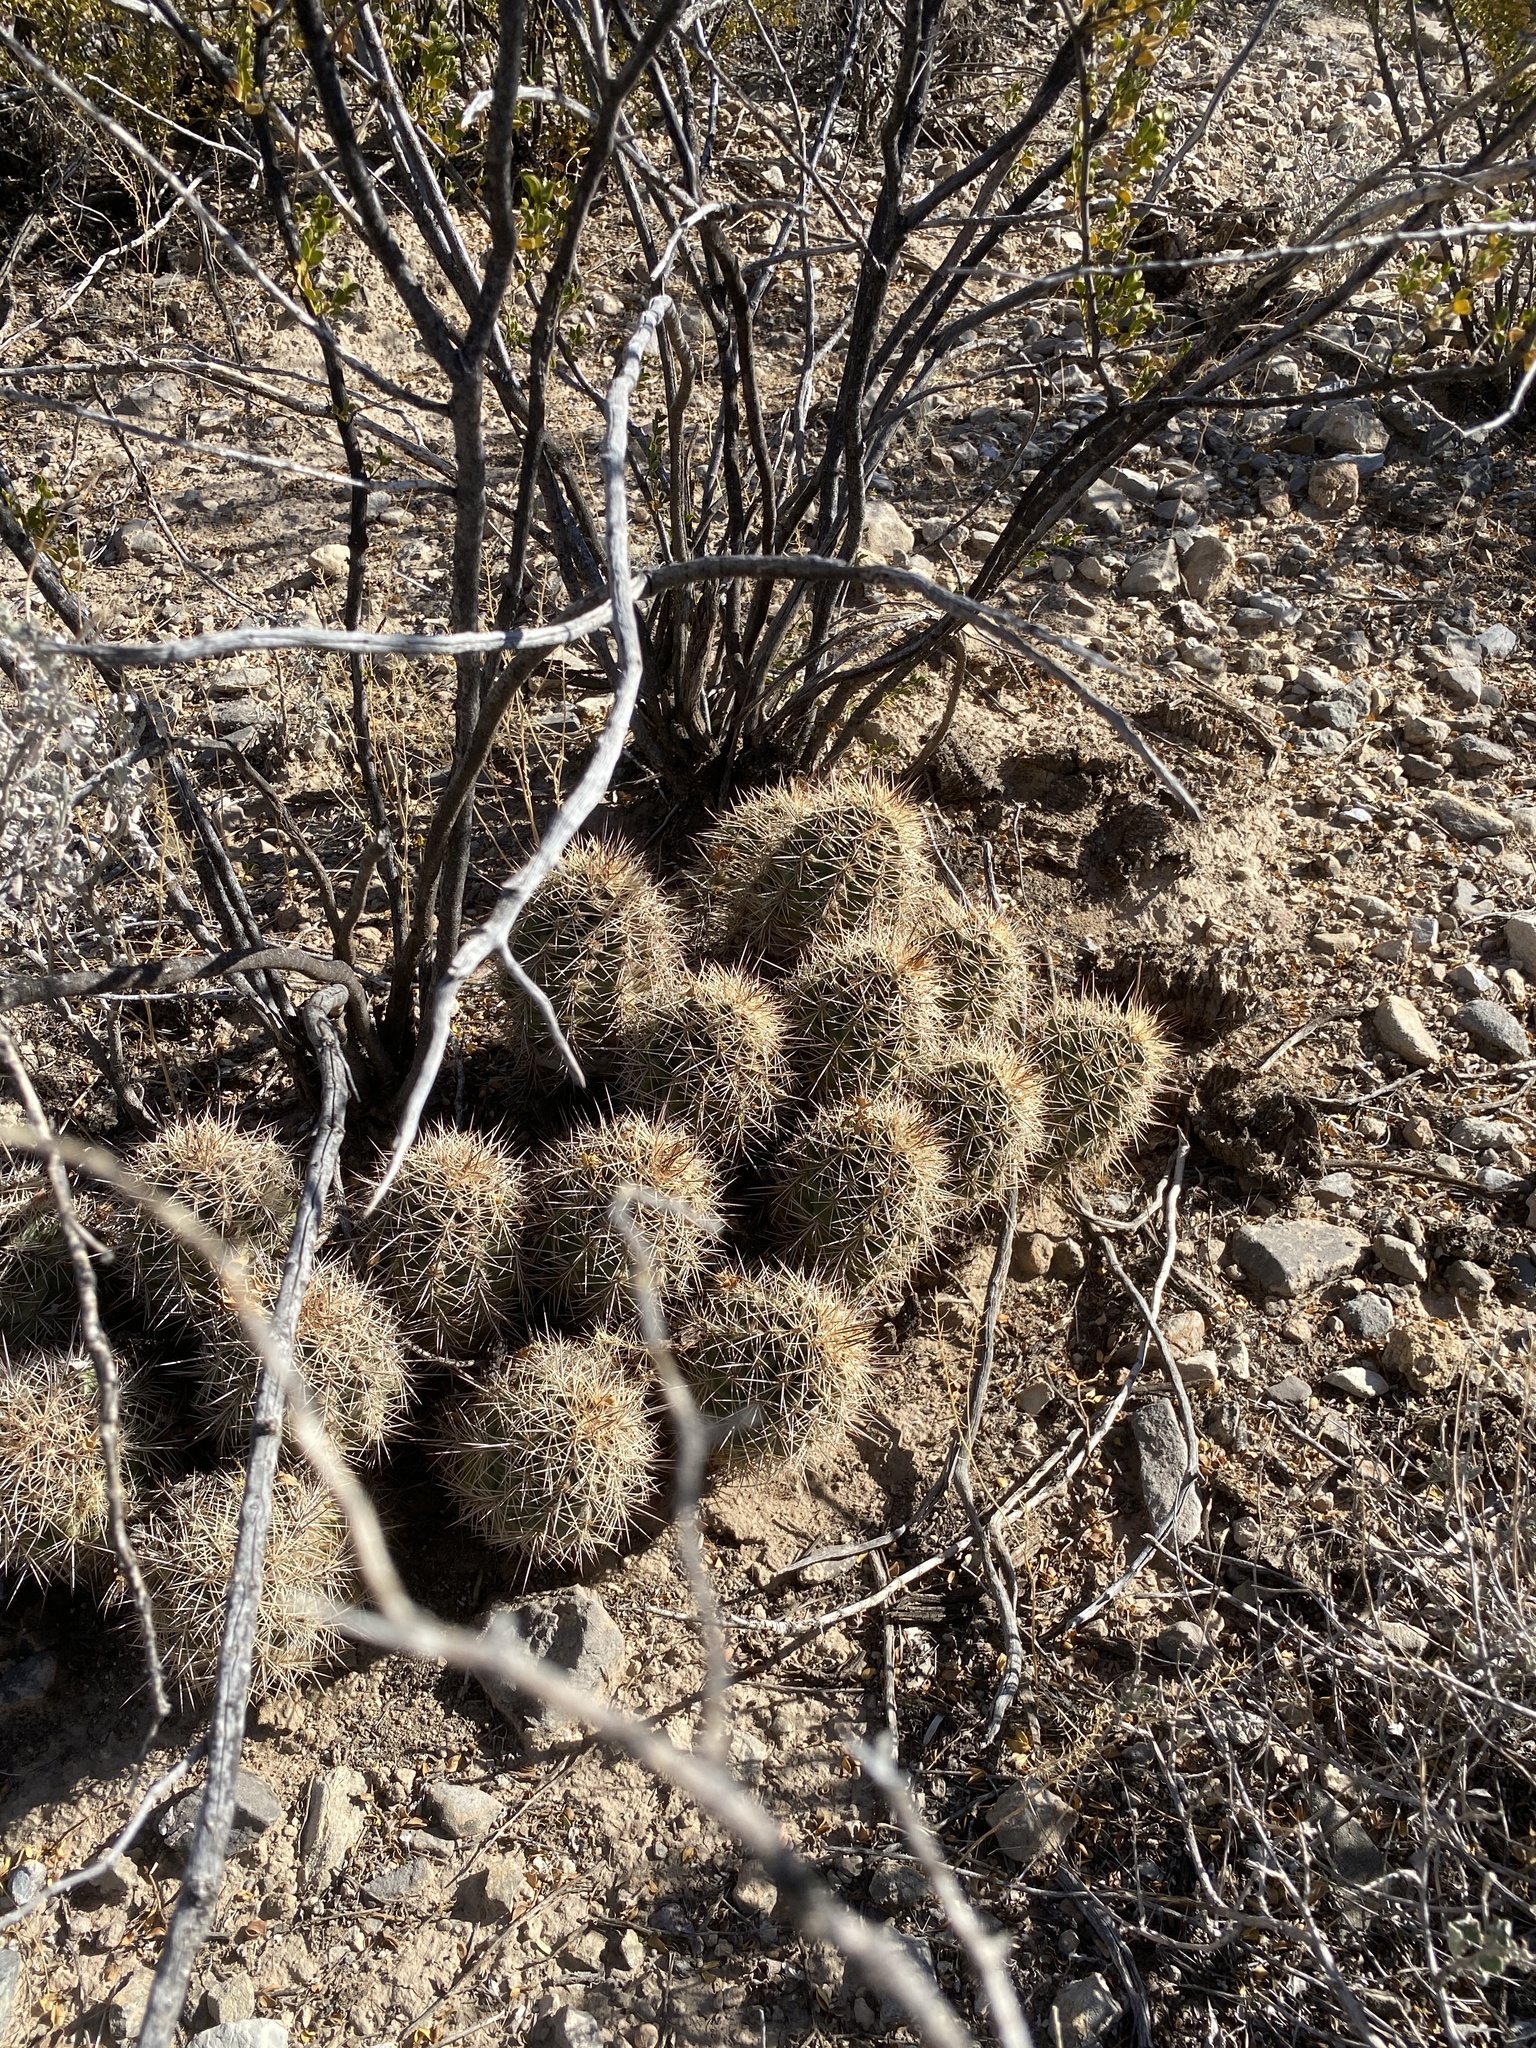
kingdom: Plantae
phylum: Tracheophyta
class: Magnoliopsida
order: Caryophyllales
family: Cactaceae
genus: Echinocereus
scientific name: Echinocereus coccineus
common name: Scarlet hedgehog cactus
